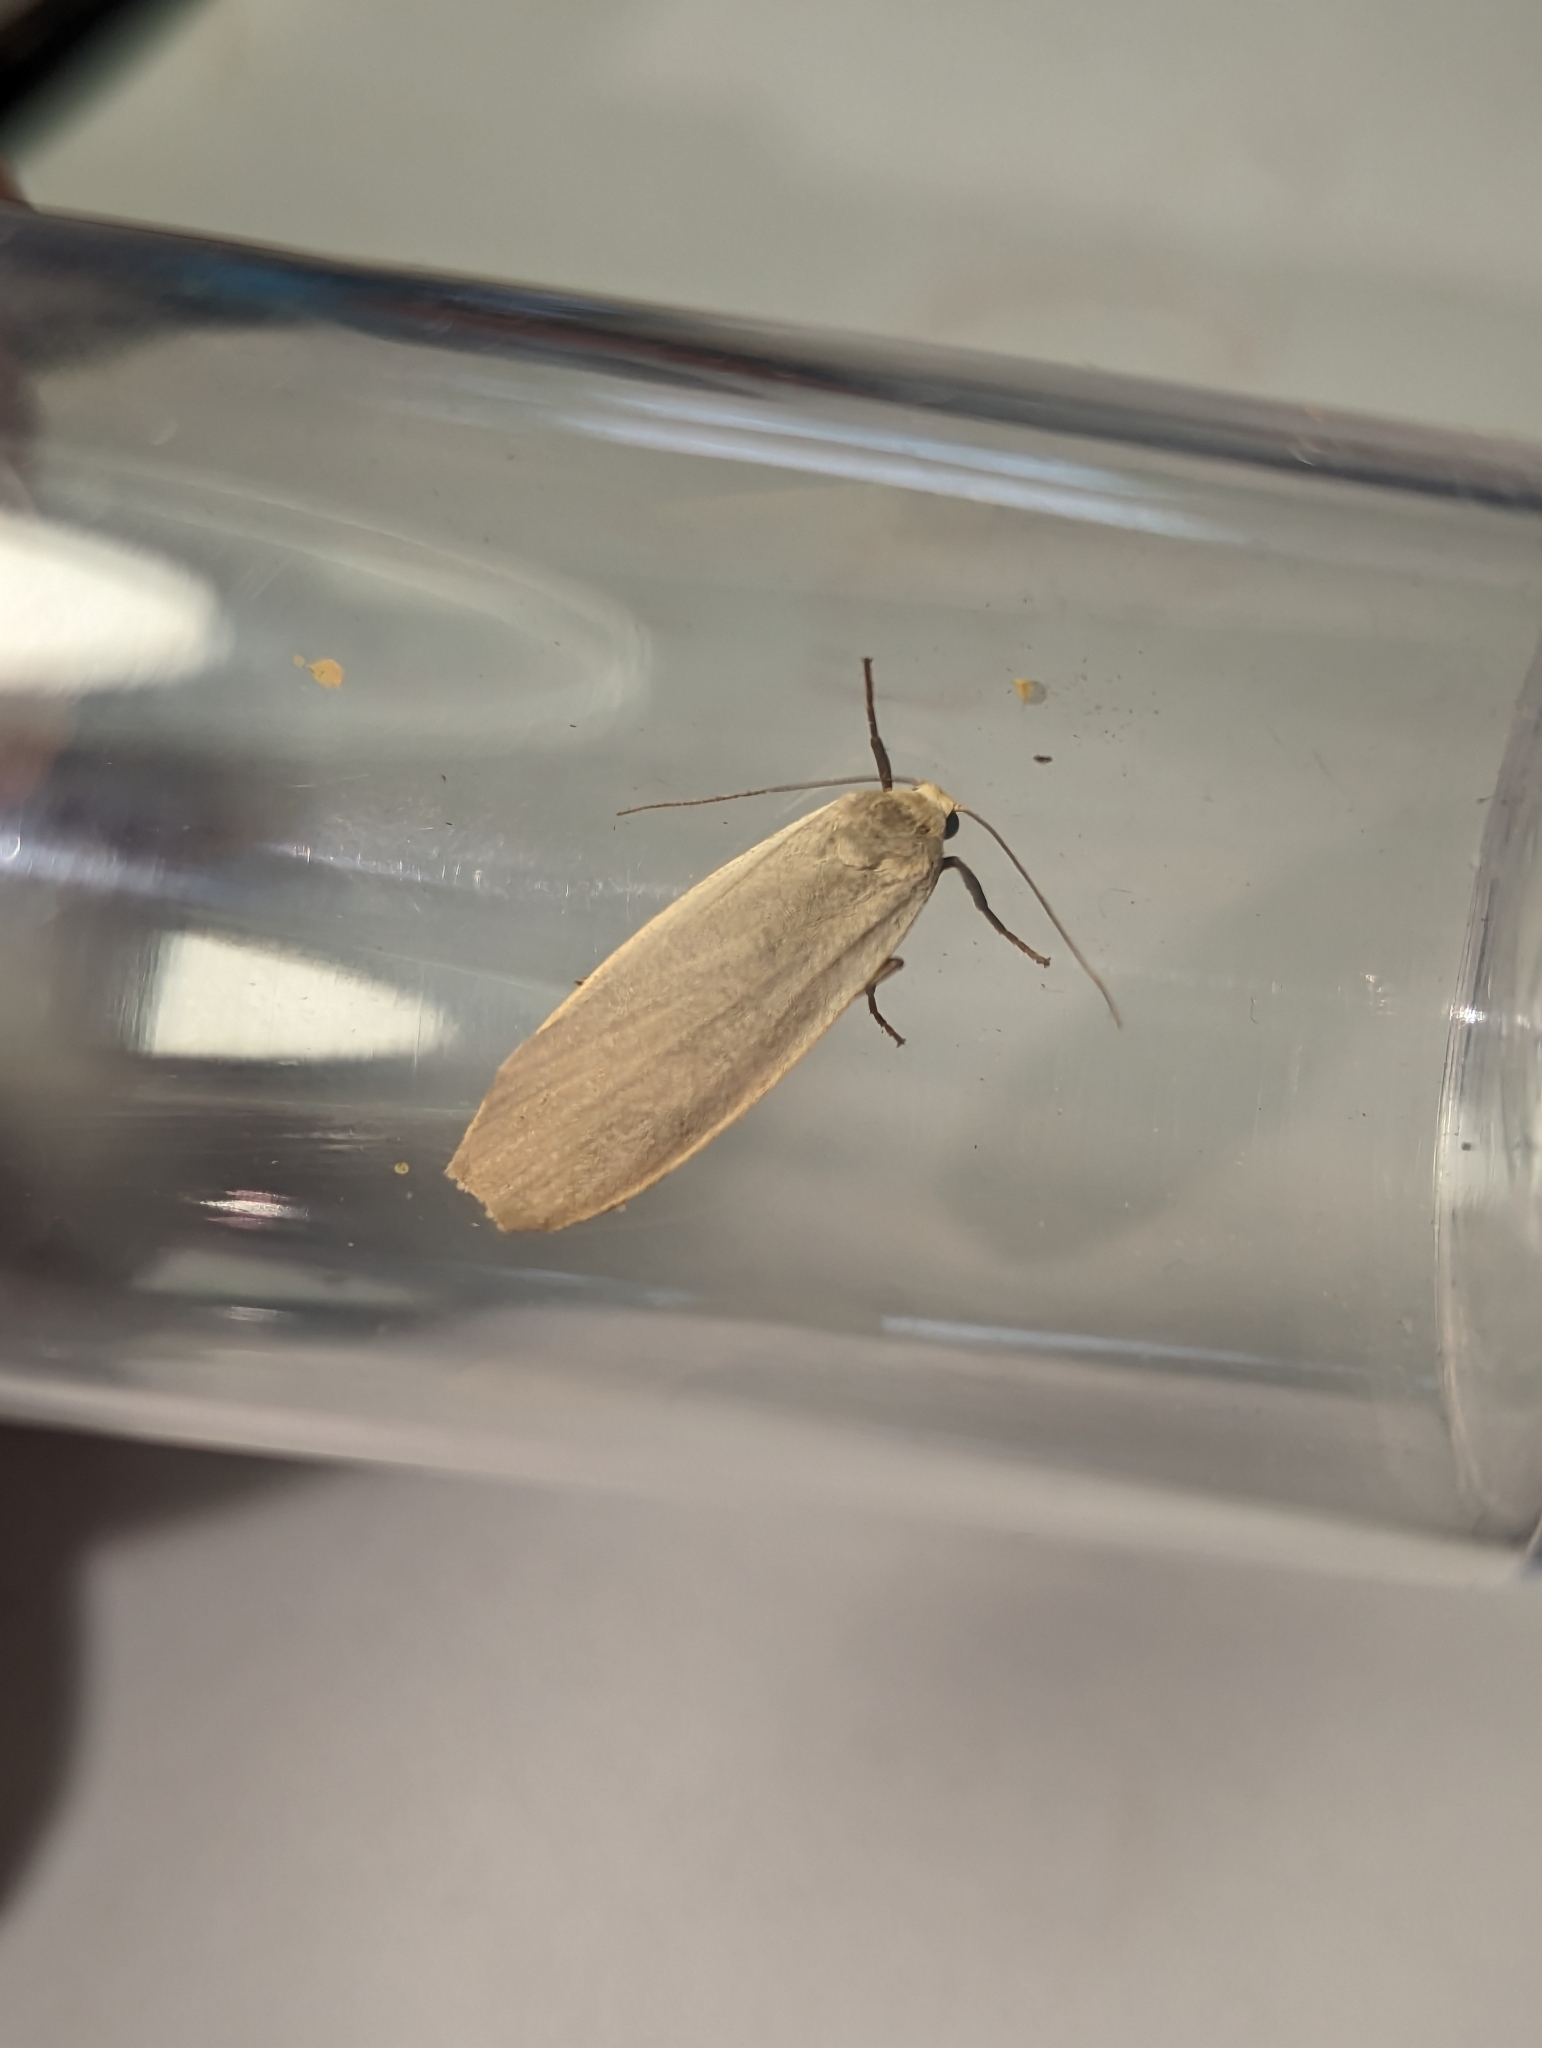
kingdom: Animalia
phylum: Arthropoda
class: Insecta
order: Lepidoptera
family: Erebidae
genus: Collita
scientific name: Collita griseola
